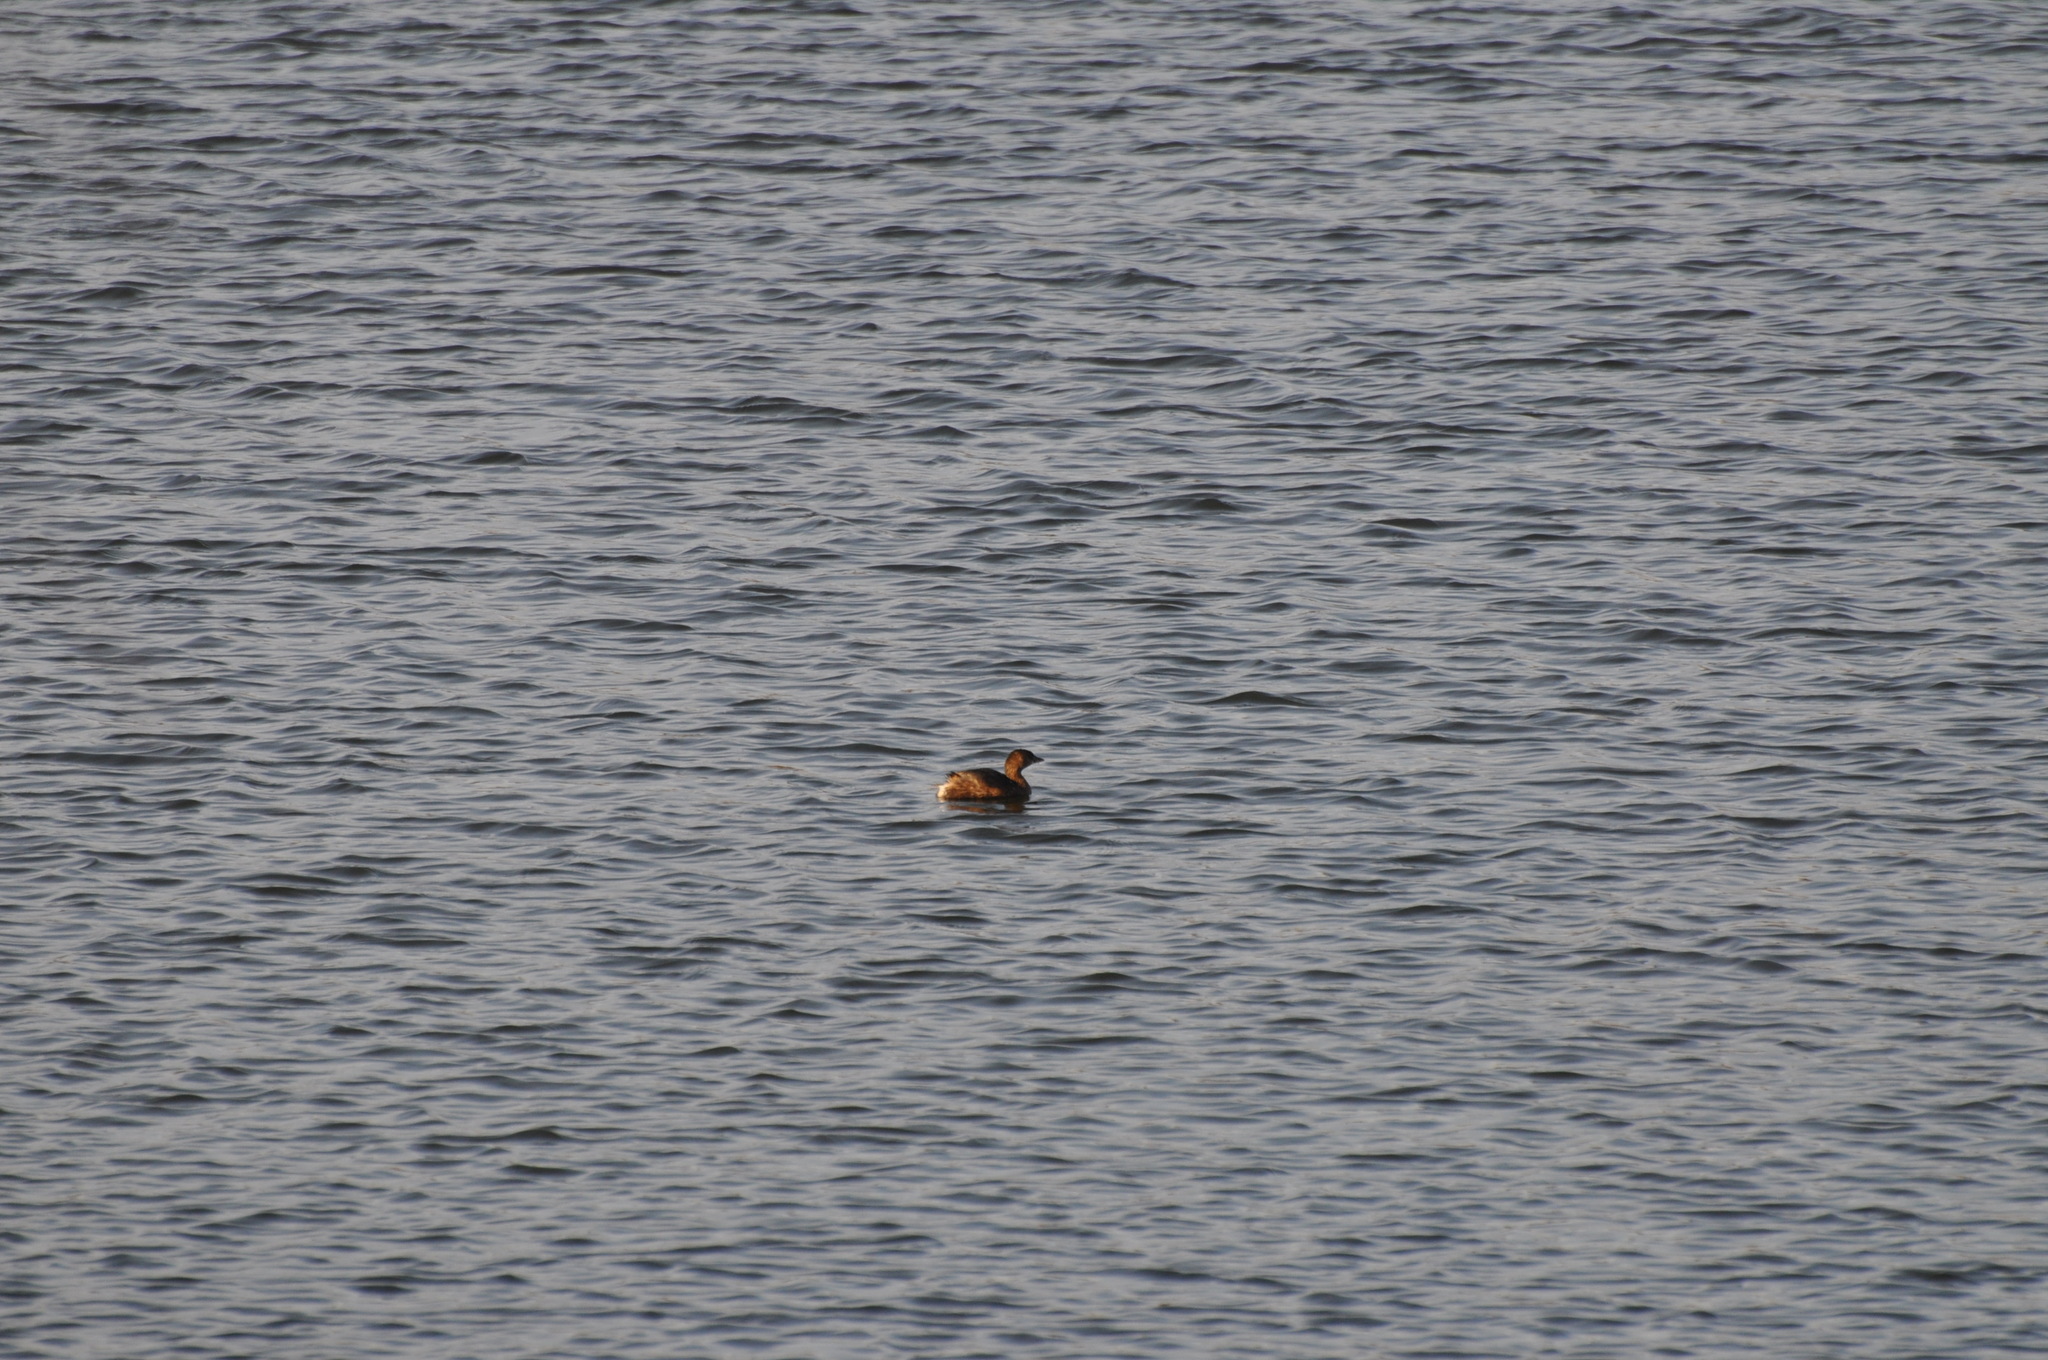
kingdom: Animalia
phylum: Chordata
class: Aves
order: Podicipediformes
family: Podicipedidae
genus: Podilymbus
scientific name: Podilymbus podiceps
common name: Pied-billed grebe
